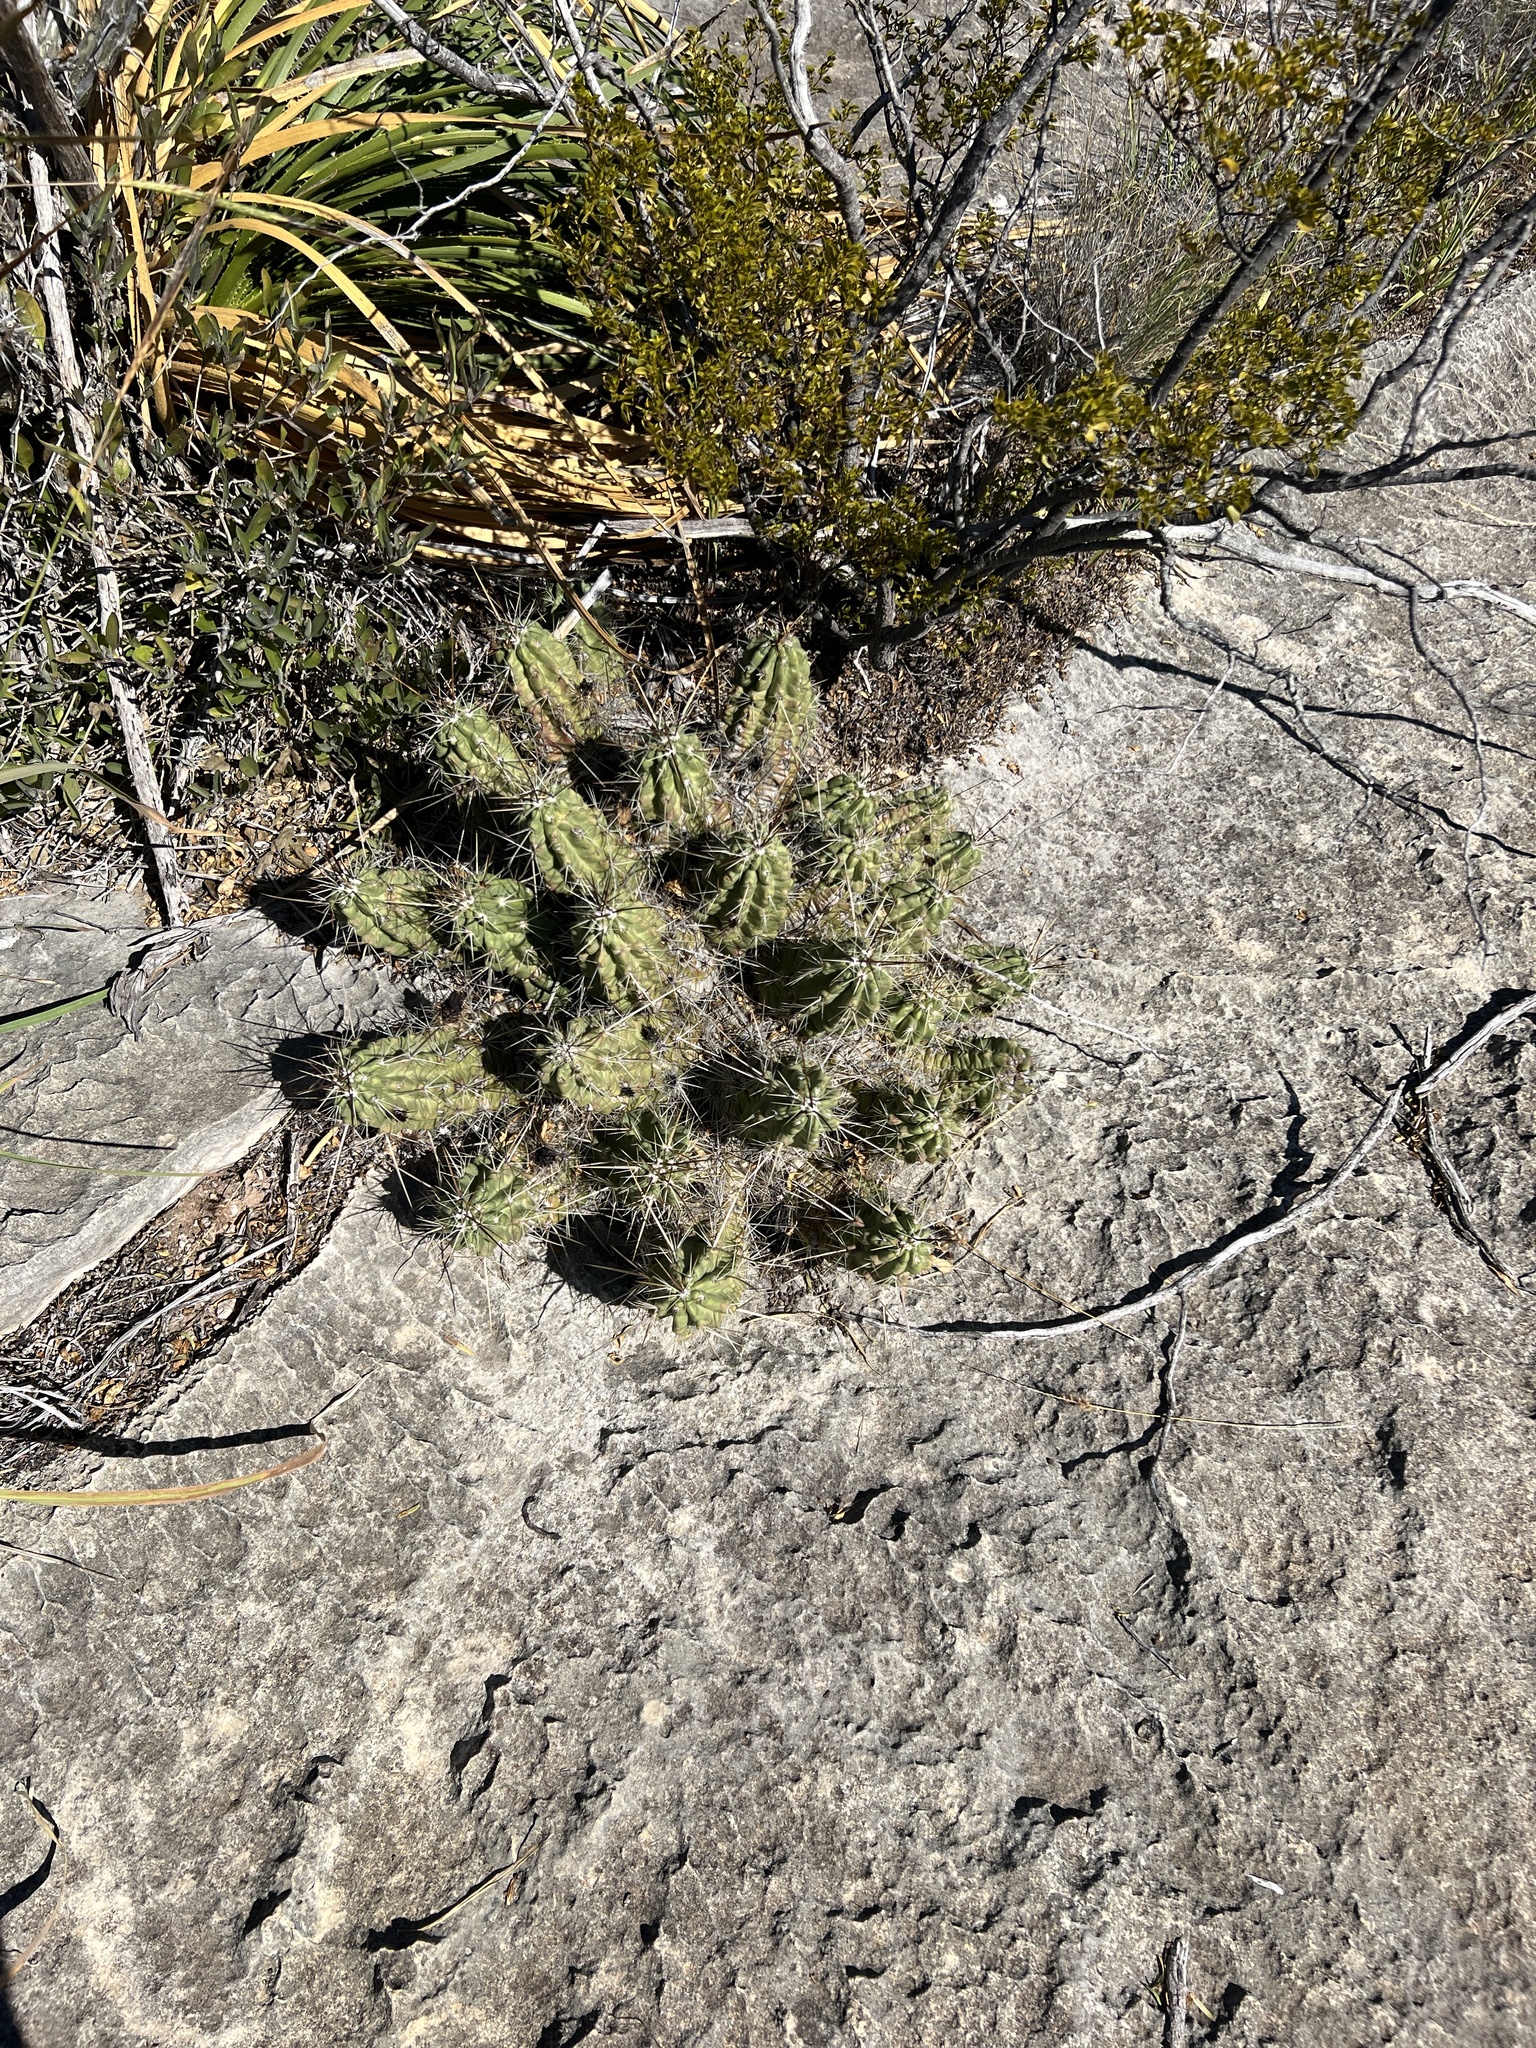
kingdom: Plantae
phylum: Tracheophyta
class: Magnoliopsida
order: Caryophyllales
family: Cactaceae
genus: Echinocereus
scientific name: Echinocereus enneacanthus
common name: Pitaya
